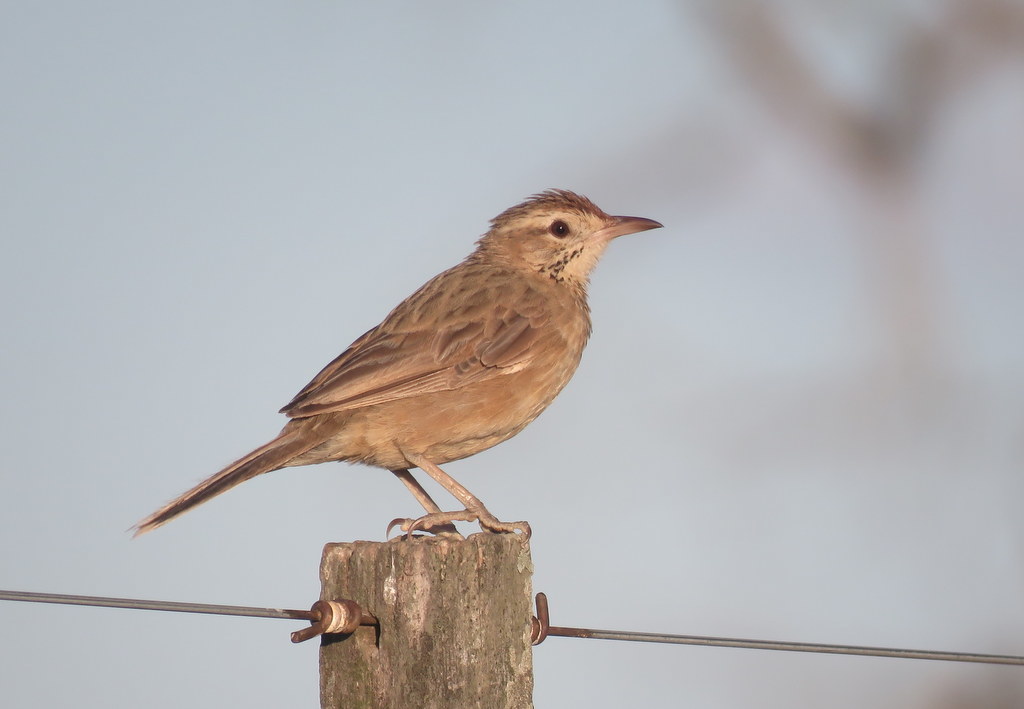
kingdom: Animalia
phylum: Chordata
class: Aves
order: Passeriformes
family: Furnariidae
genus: Anumbius
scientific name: Anumbius annumbi
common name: Firewood-gatherer
